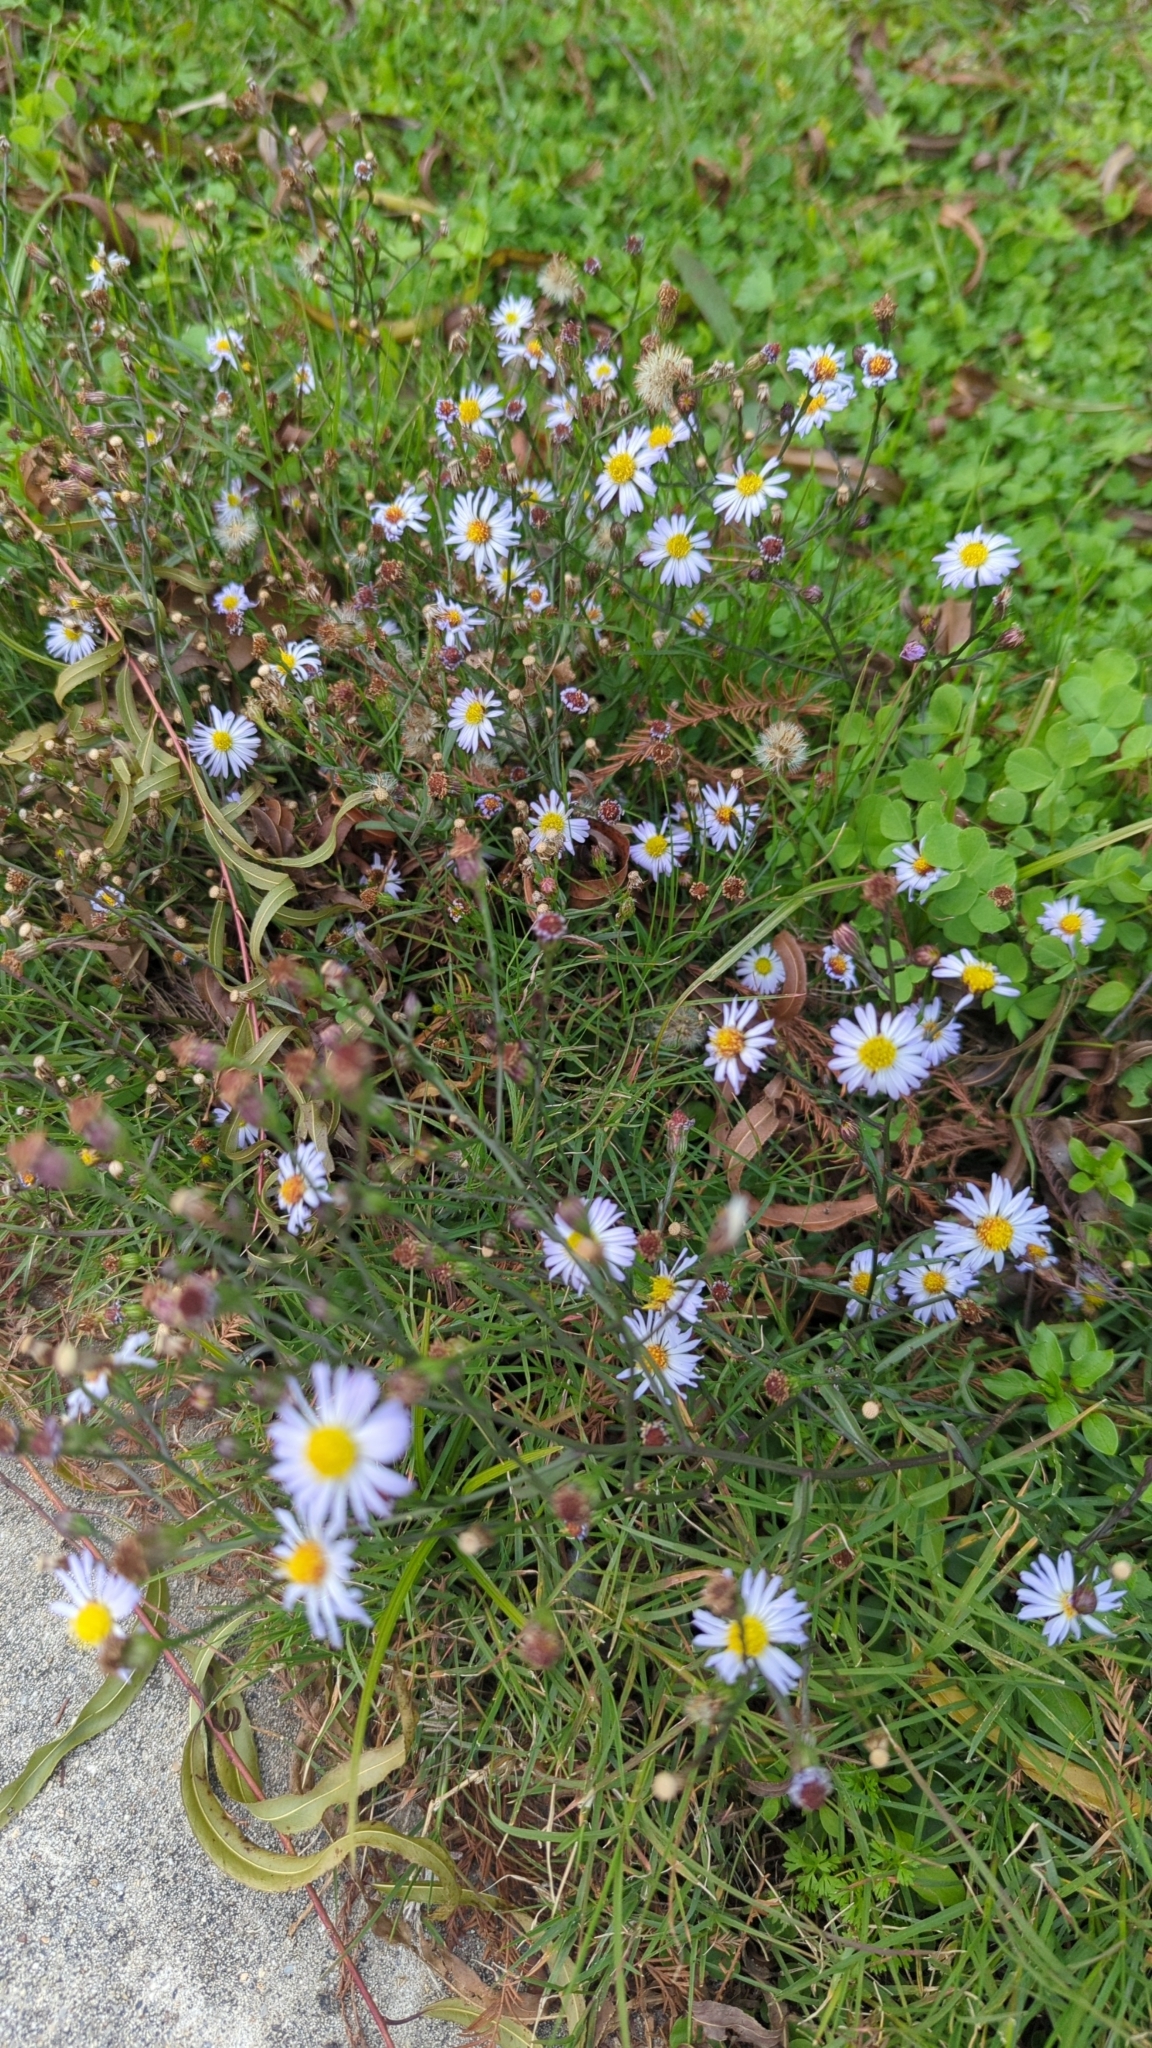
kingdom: Plantae
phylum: Tracheophyta
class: Magnoliopsida
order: Asterales
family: Asteraceae
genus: Symphyotrichum
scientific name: Symphyotrichum divaricatum
